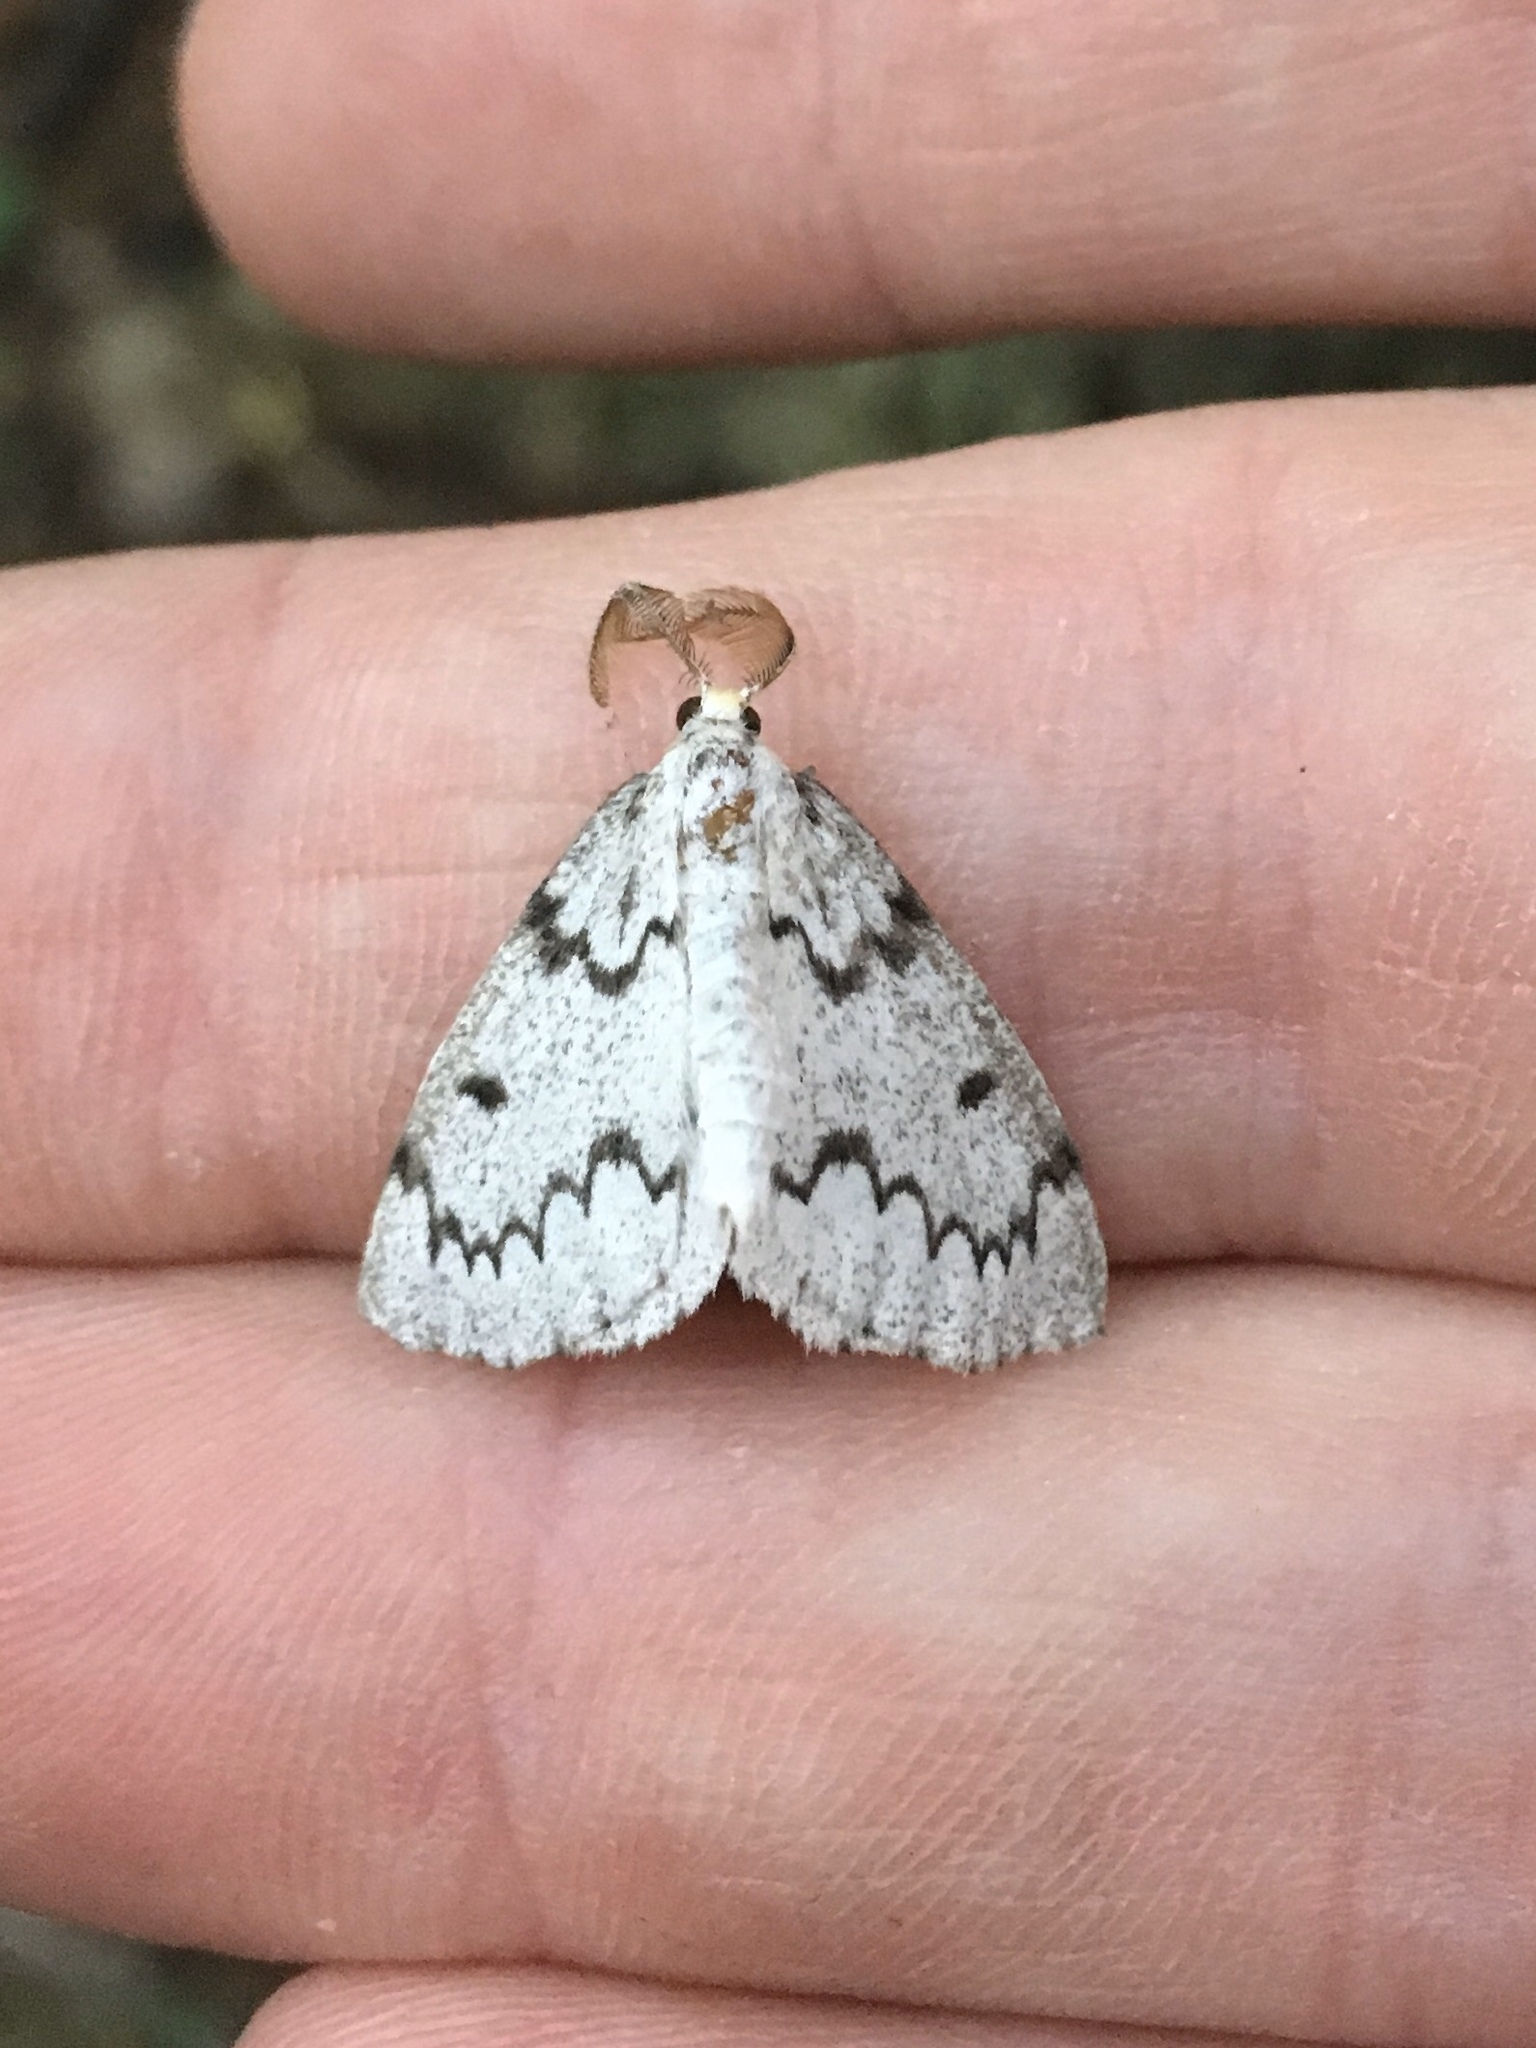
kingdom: Animalia
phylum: Arthropoda
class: Insecta
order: Lepidoptera
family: Geometridae
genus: Nepytia
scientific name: Nepytia canosaria
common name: False hemlock looper
